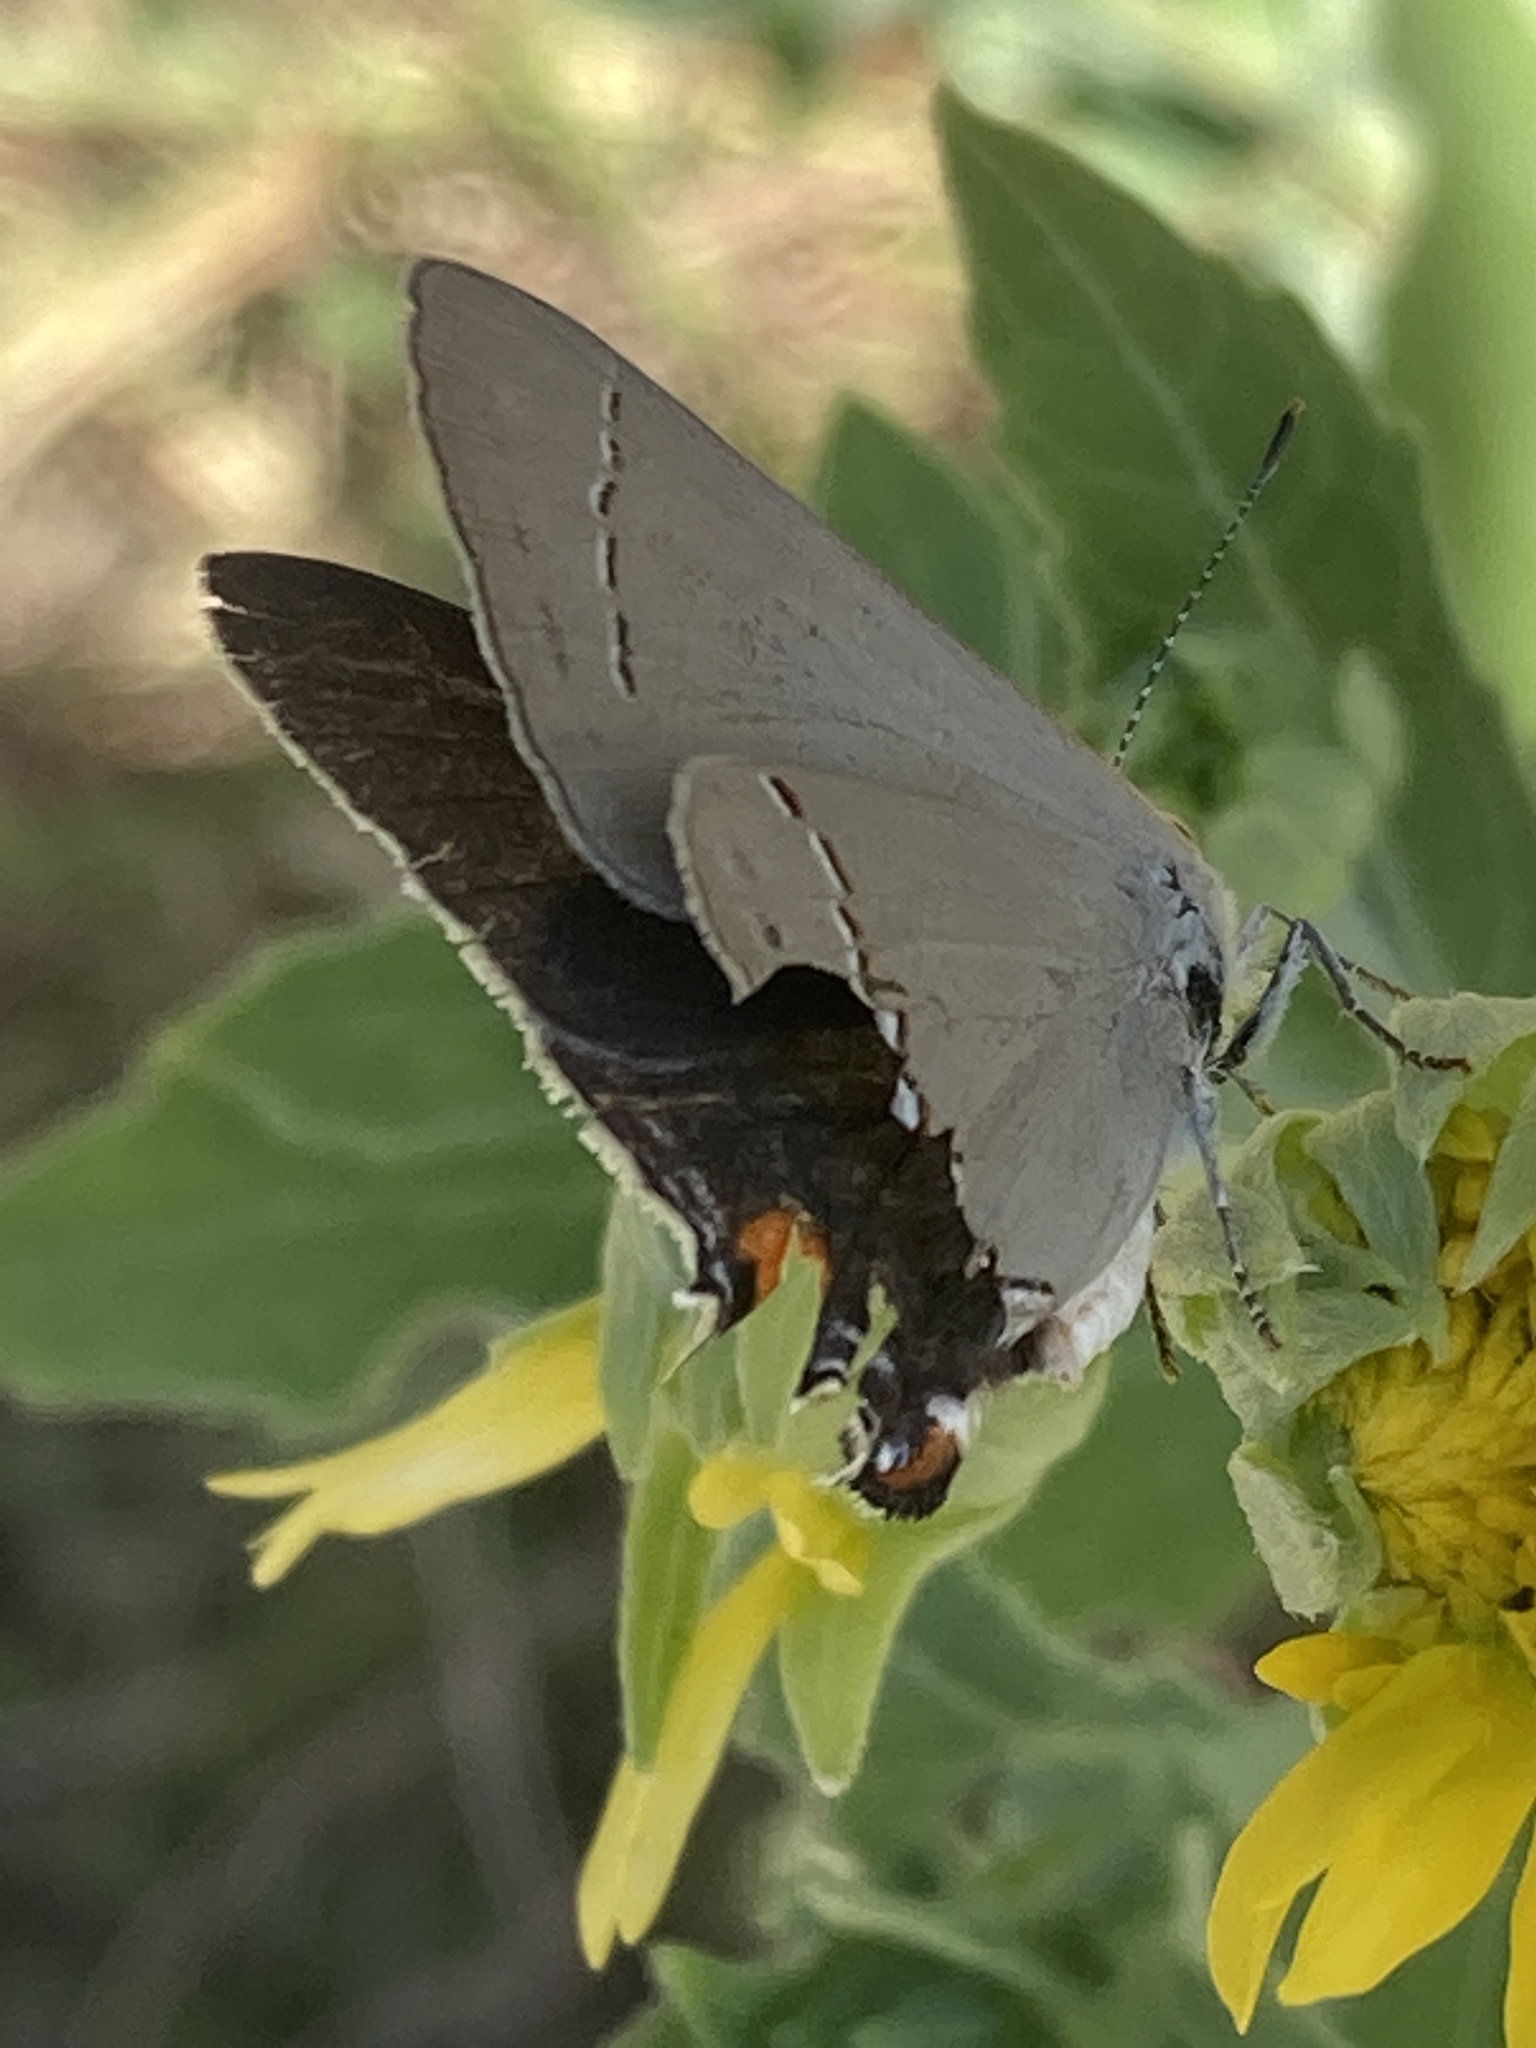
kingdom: Animalia
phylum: Arthropoda
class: Insecta
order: Lepidoptera
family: Lycaenidae
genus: Strymon
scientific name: Strymon melinus
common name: Gray hairstreak
